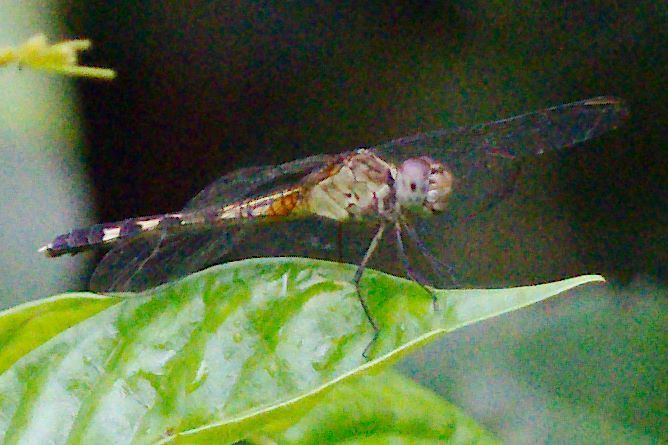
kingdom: Animalia
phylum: Arthropoda
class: Insecta
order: Odonata
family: Libellulidae
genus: Erythrodiplax
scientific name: Erythrodiplax umbrata
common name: Band-winged dragonlet
